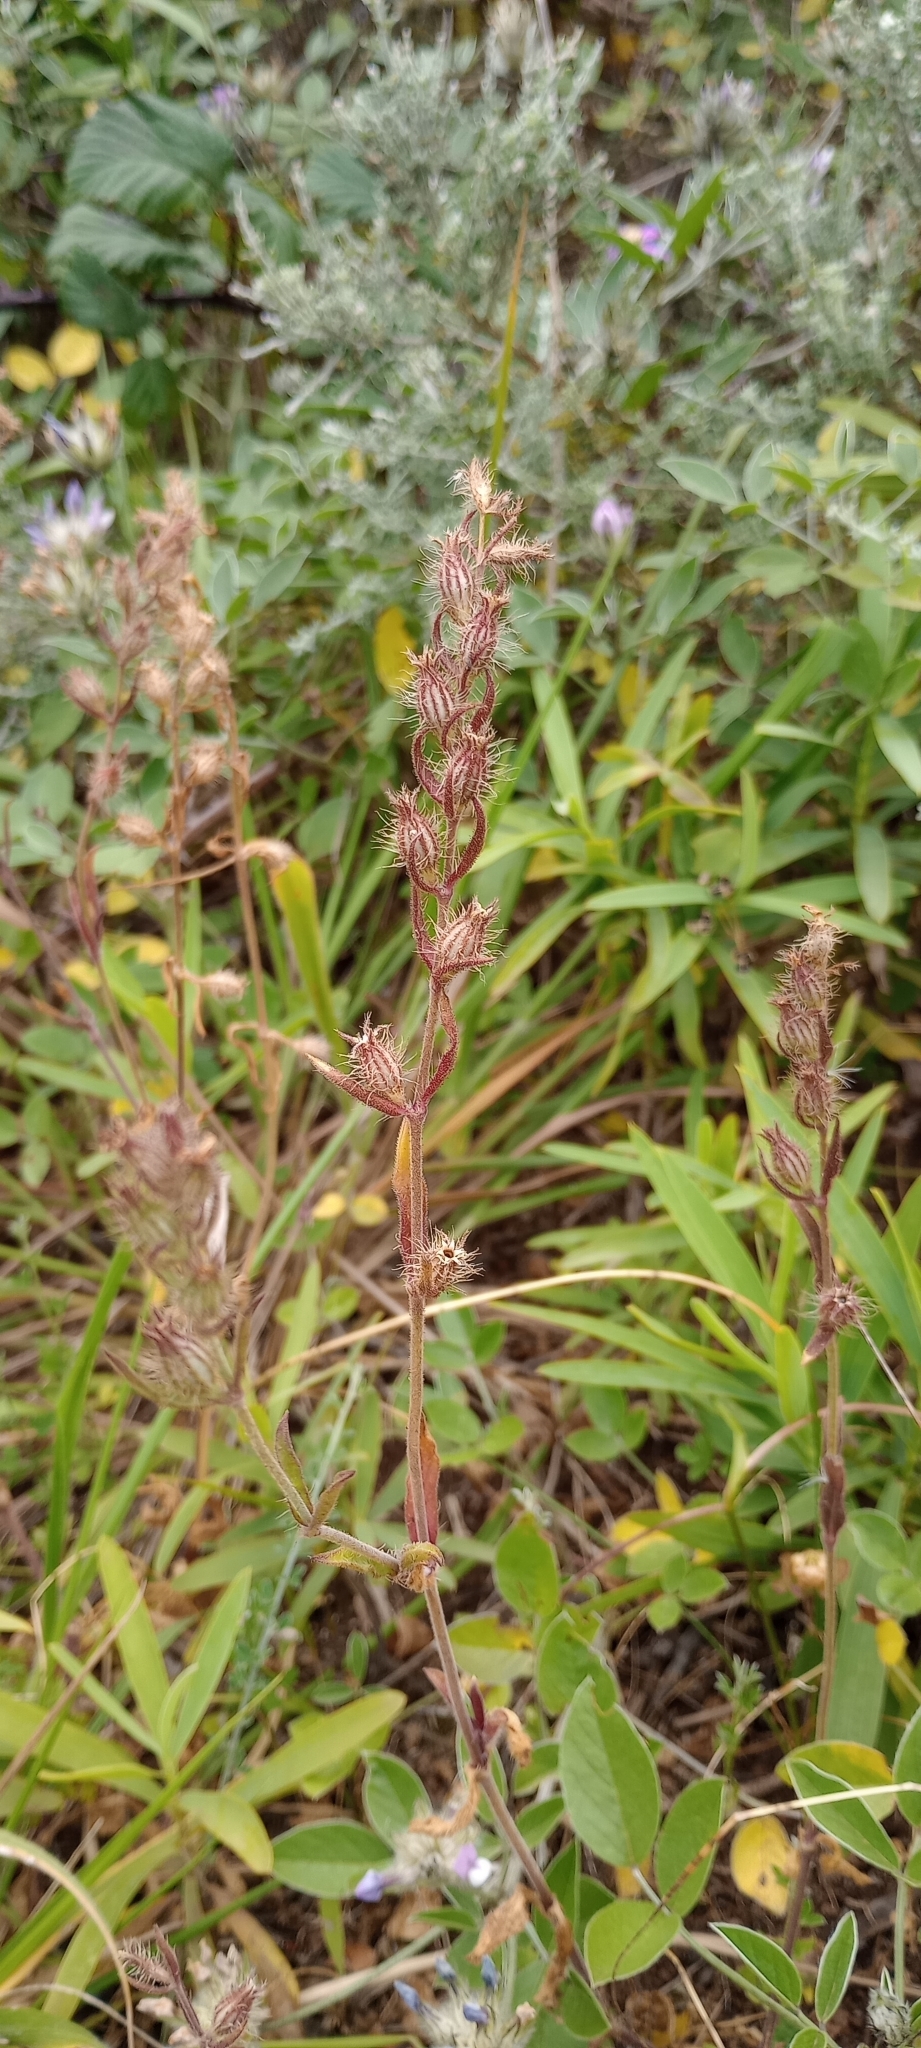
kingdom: Plantae
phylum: Tracheophyta
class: Magnoliopsida
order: Caryophyllales
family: Caryophyllaceae
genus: Silene
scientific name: Silene gallica
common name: Small-flowered catchfly
